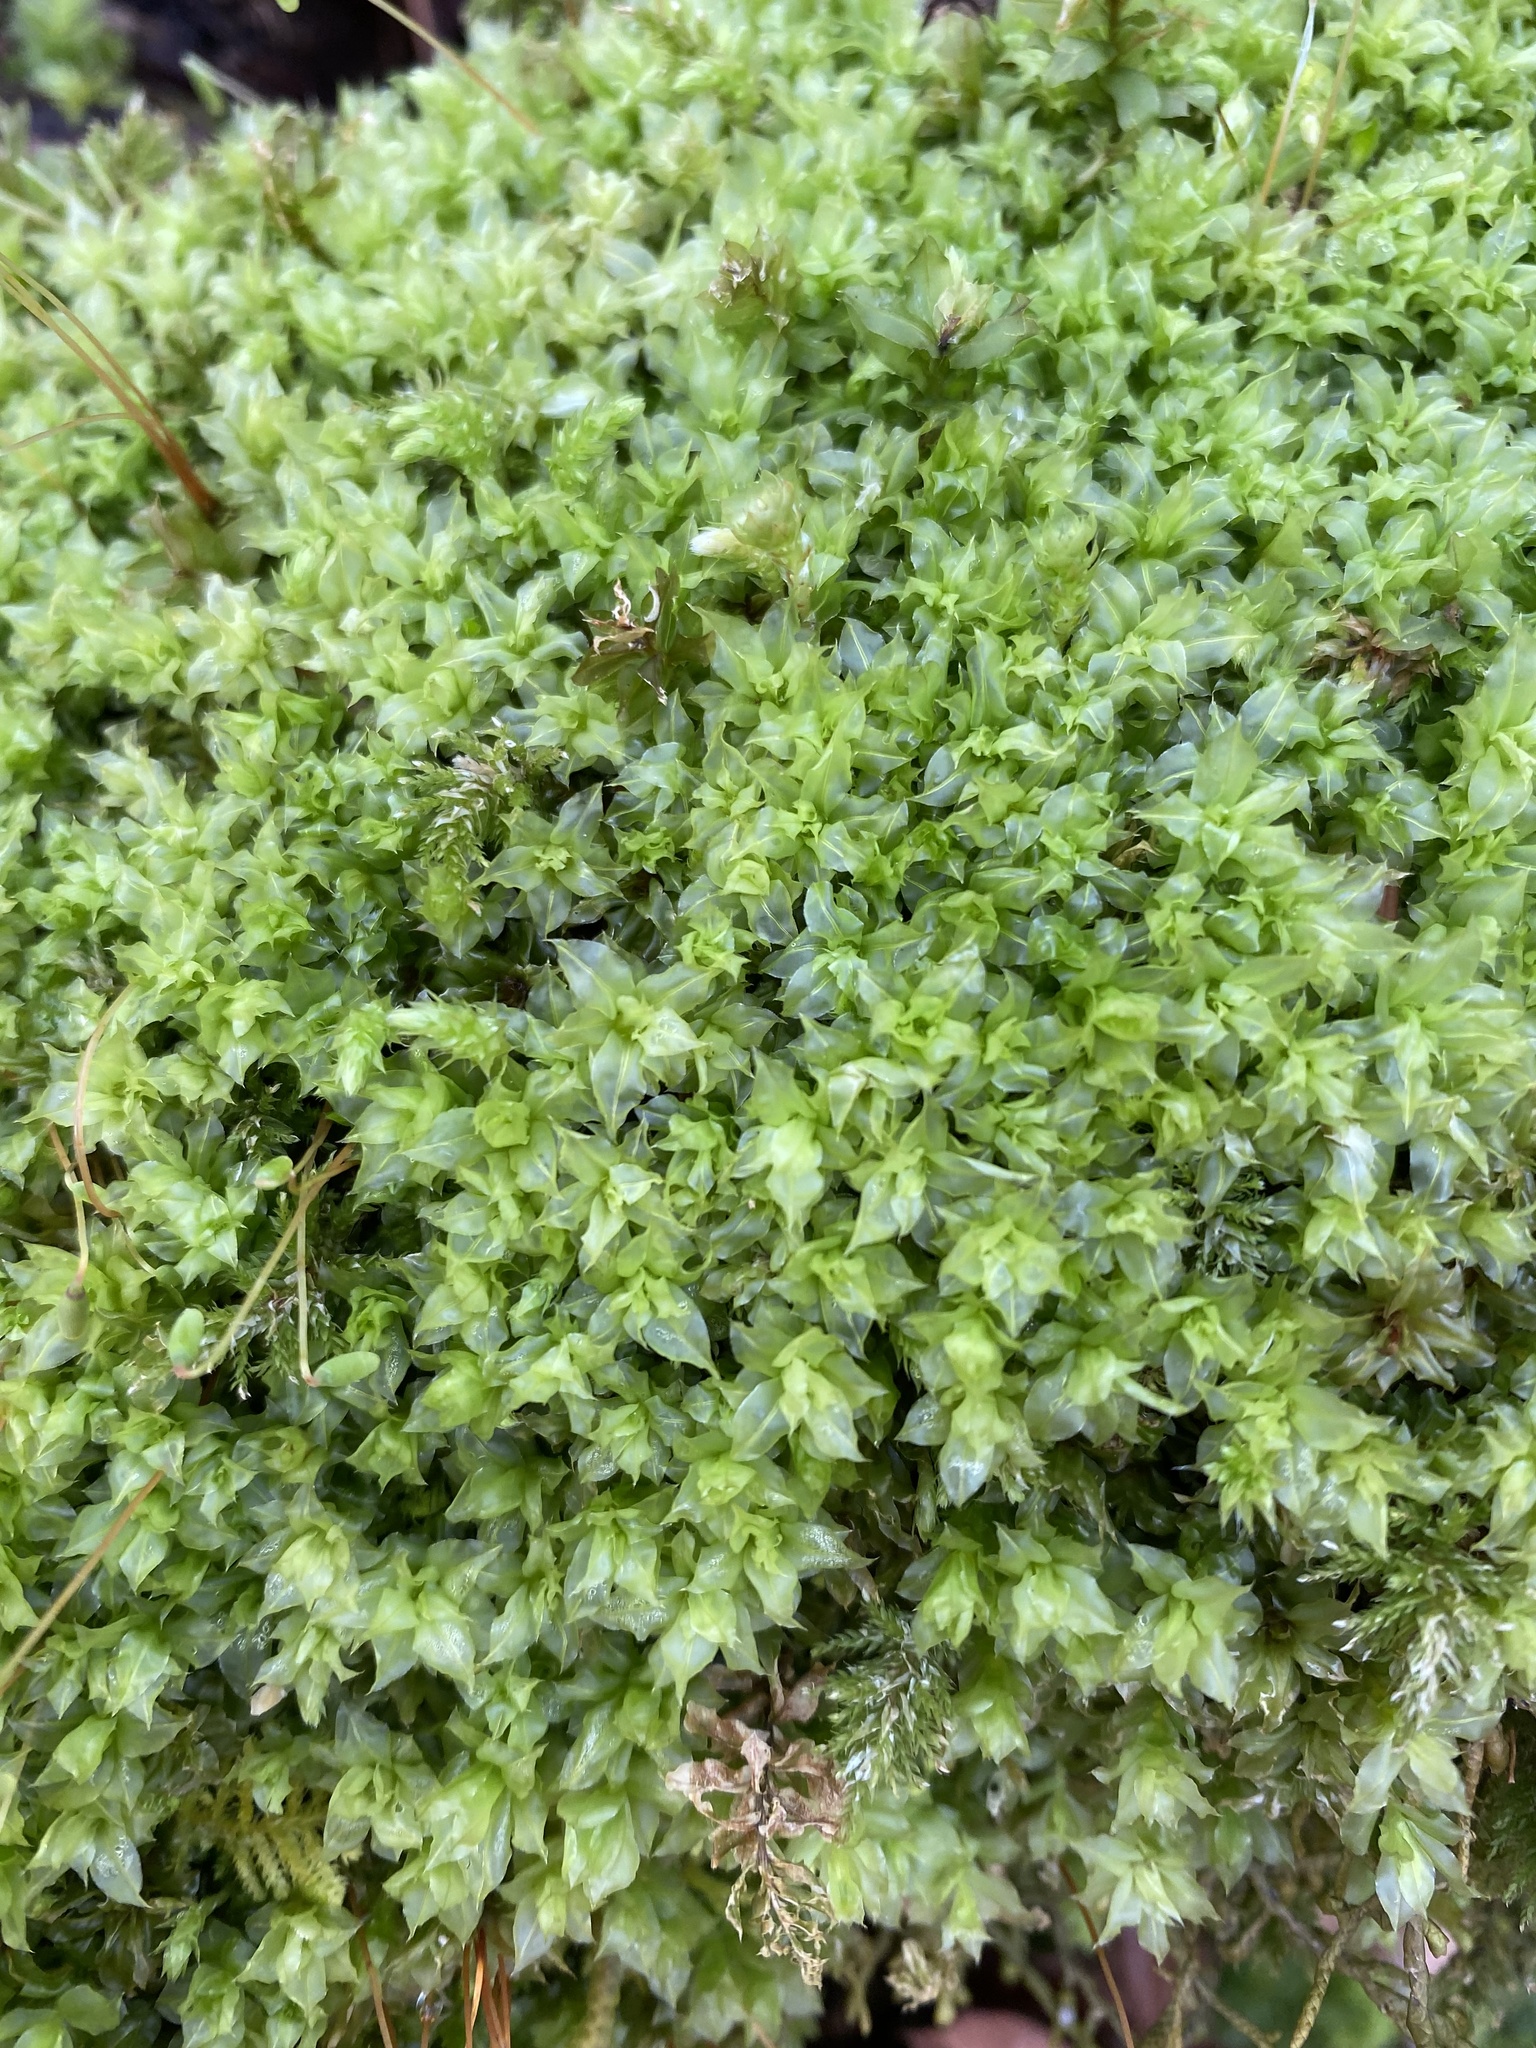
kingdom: Plantae
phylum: Bryophyta
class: Bryopsida
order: Bryales
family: Mniaceae
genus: Plagiomnium
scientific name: Plagiomnium insigne
